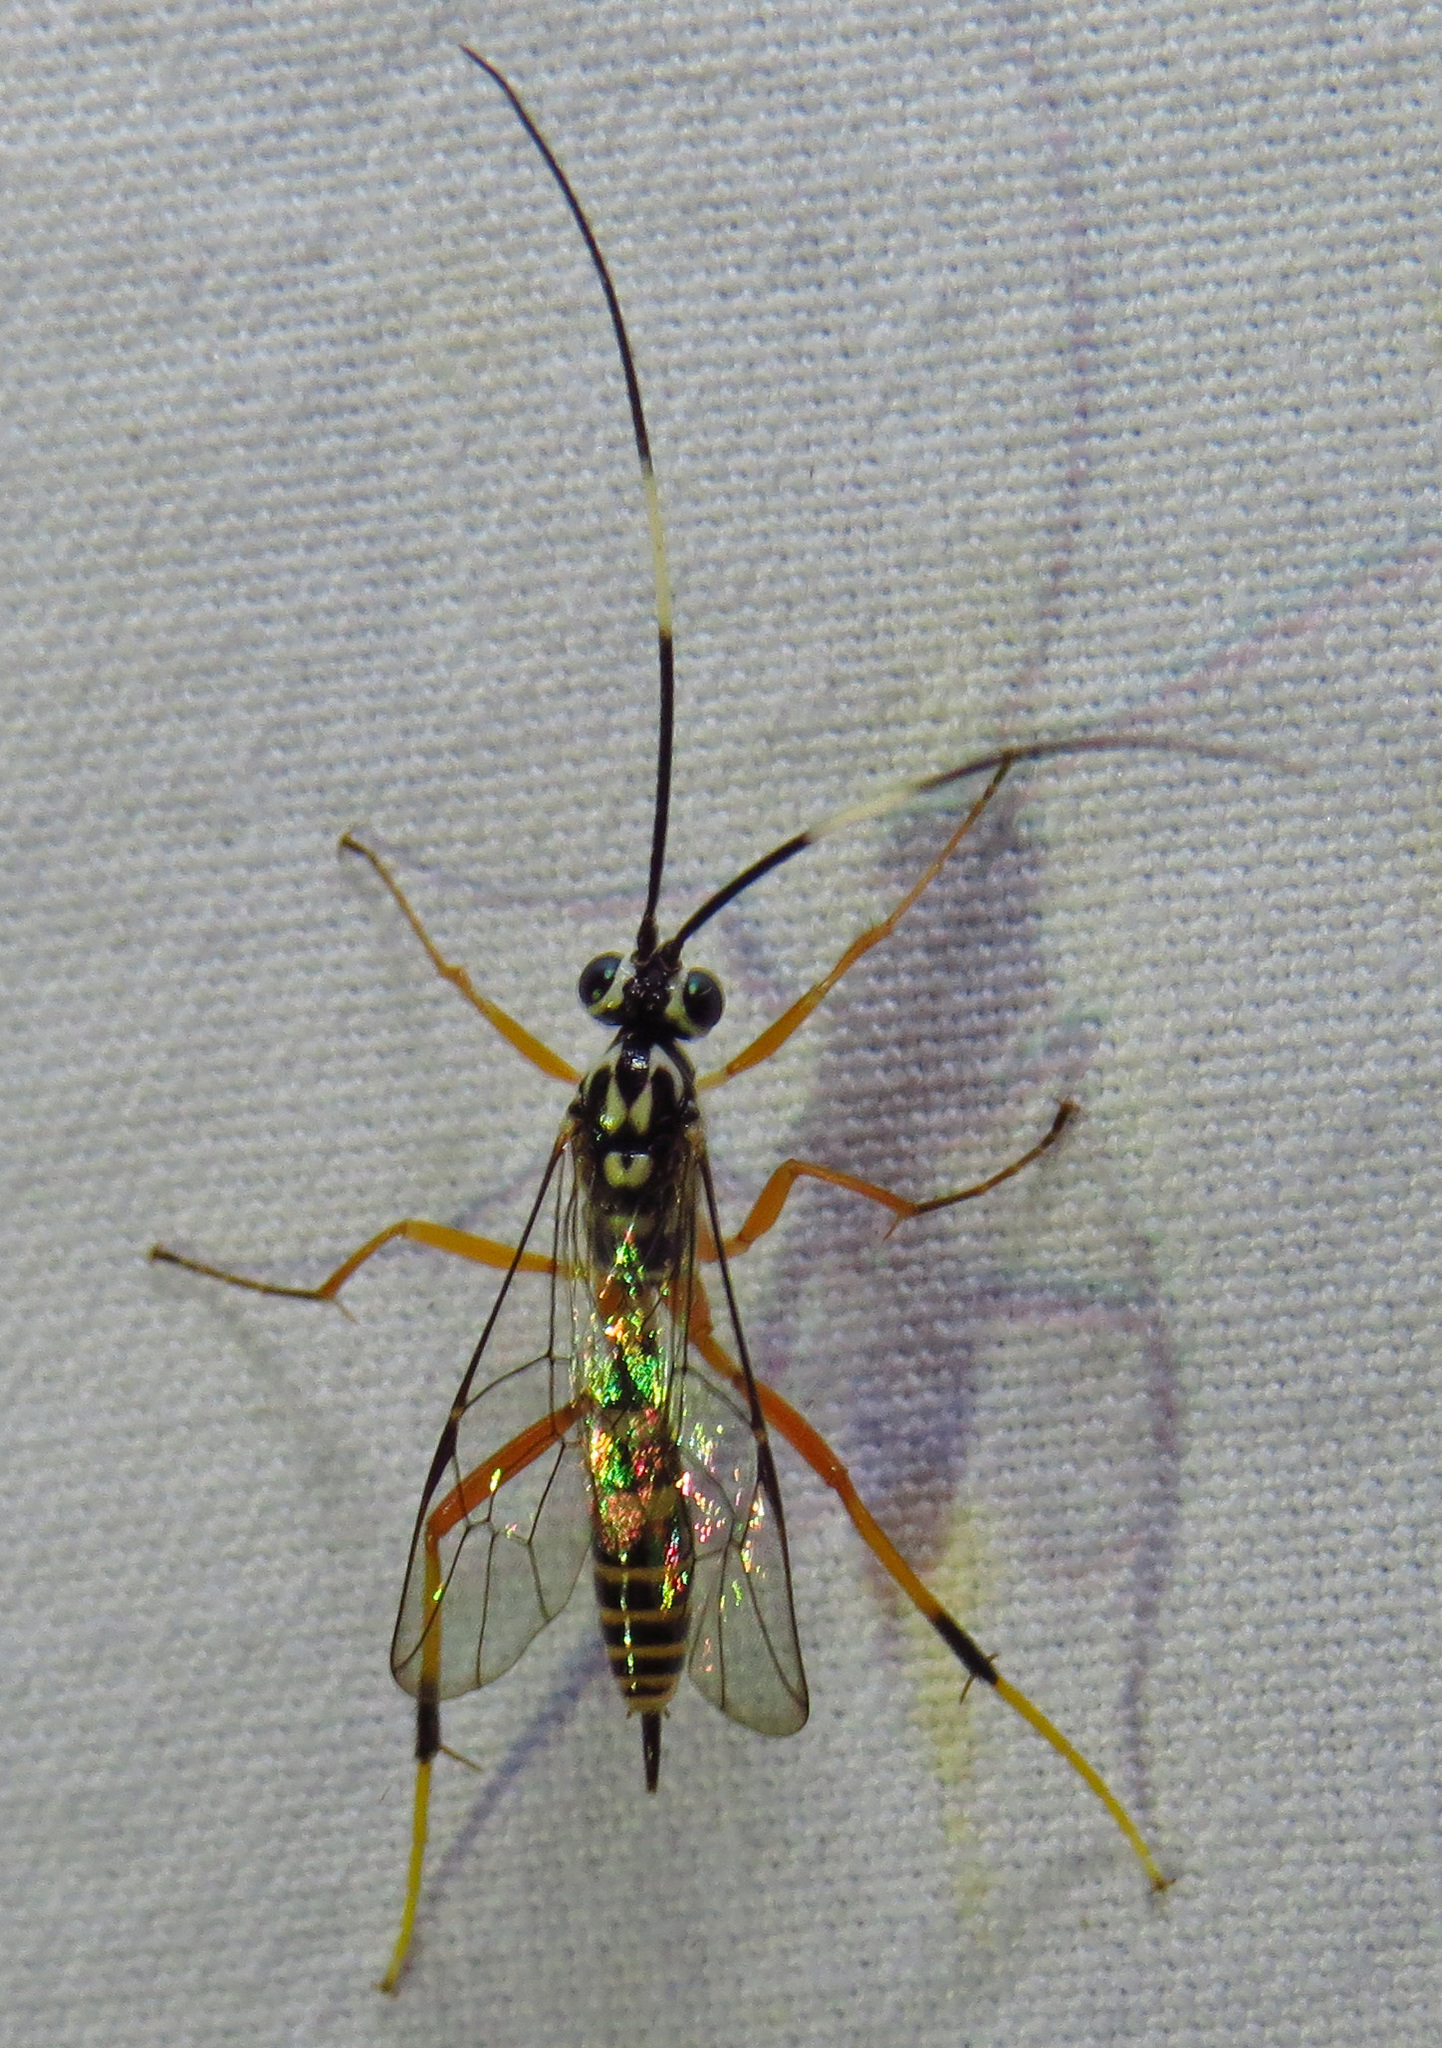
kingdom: Animalia
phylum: Arthropoda
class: Insecta
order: Hymenoptera
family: Ichneumonidae
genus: Diradops
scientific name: Diradops bethunei
